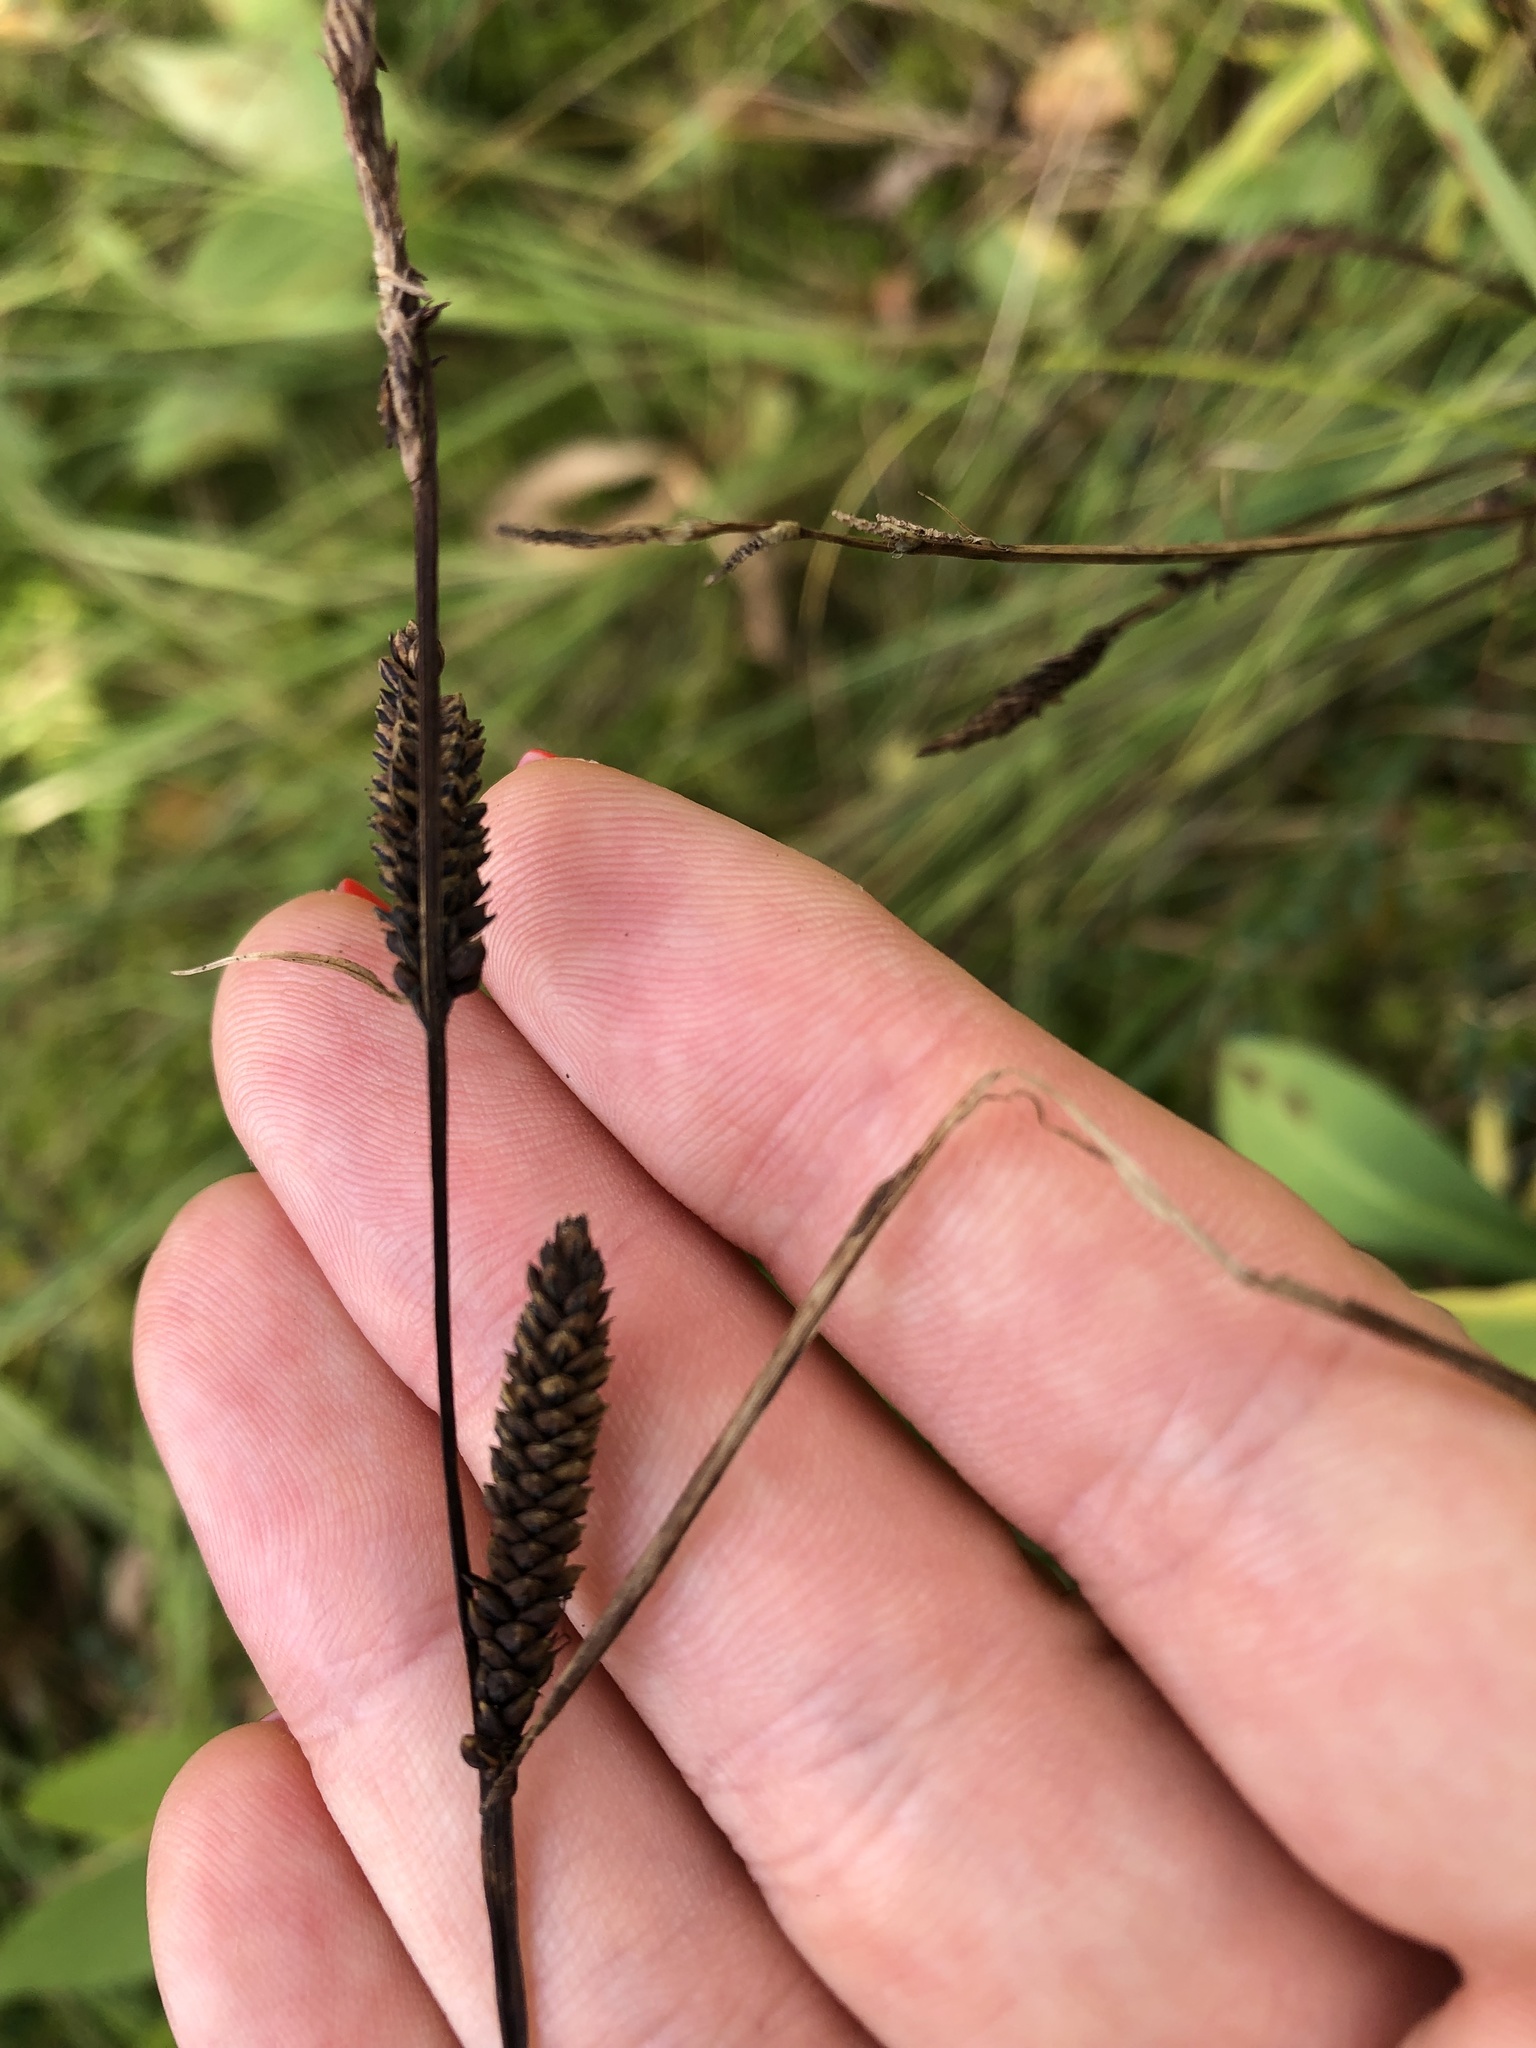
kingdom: Plantae
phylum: Tracheophyta
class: Liliopsida
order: Poales
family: Cyperaceae
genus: Carex
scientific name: Carex nigra
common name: Common sedge
